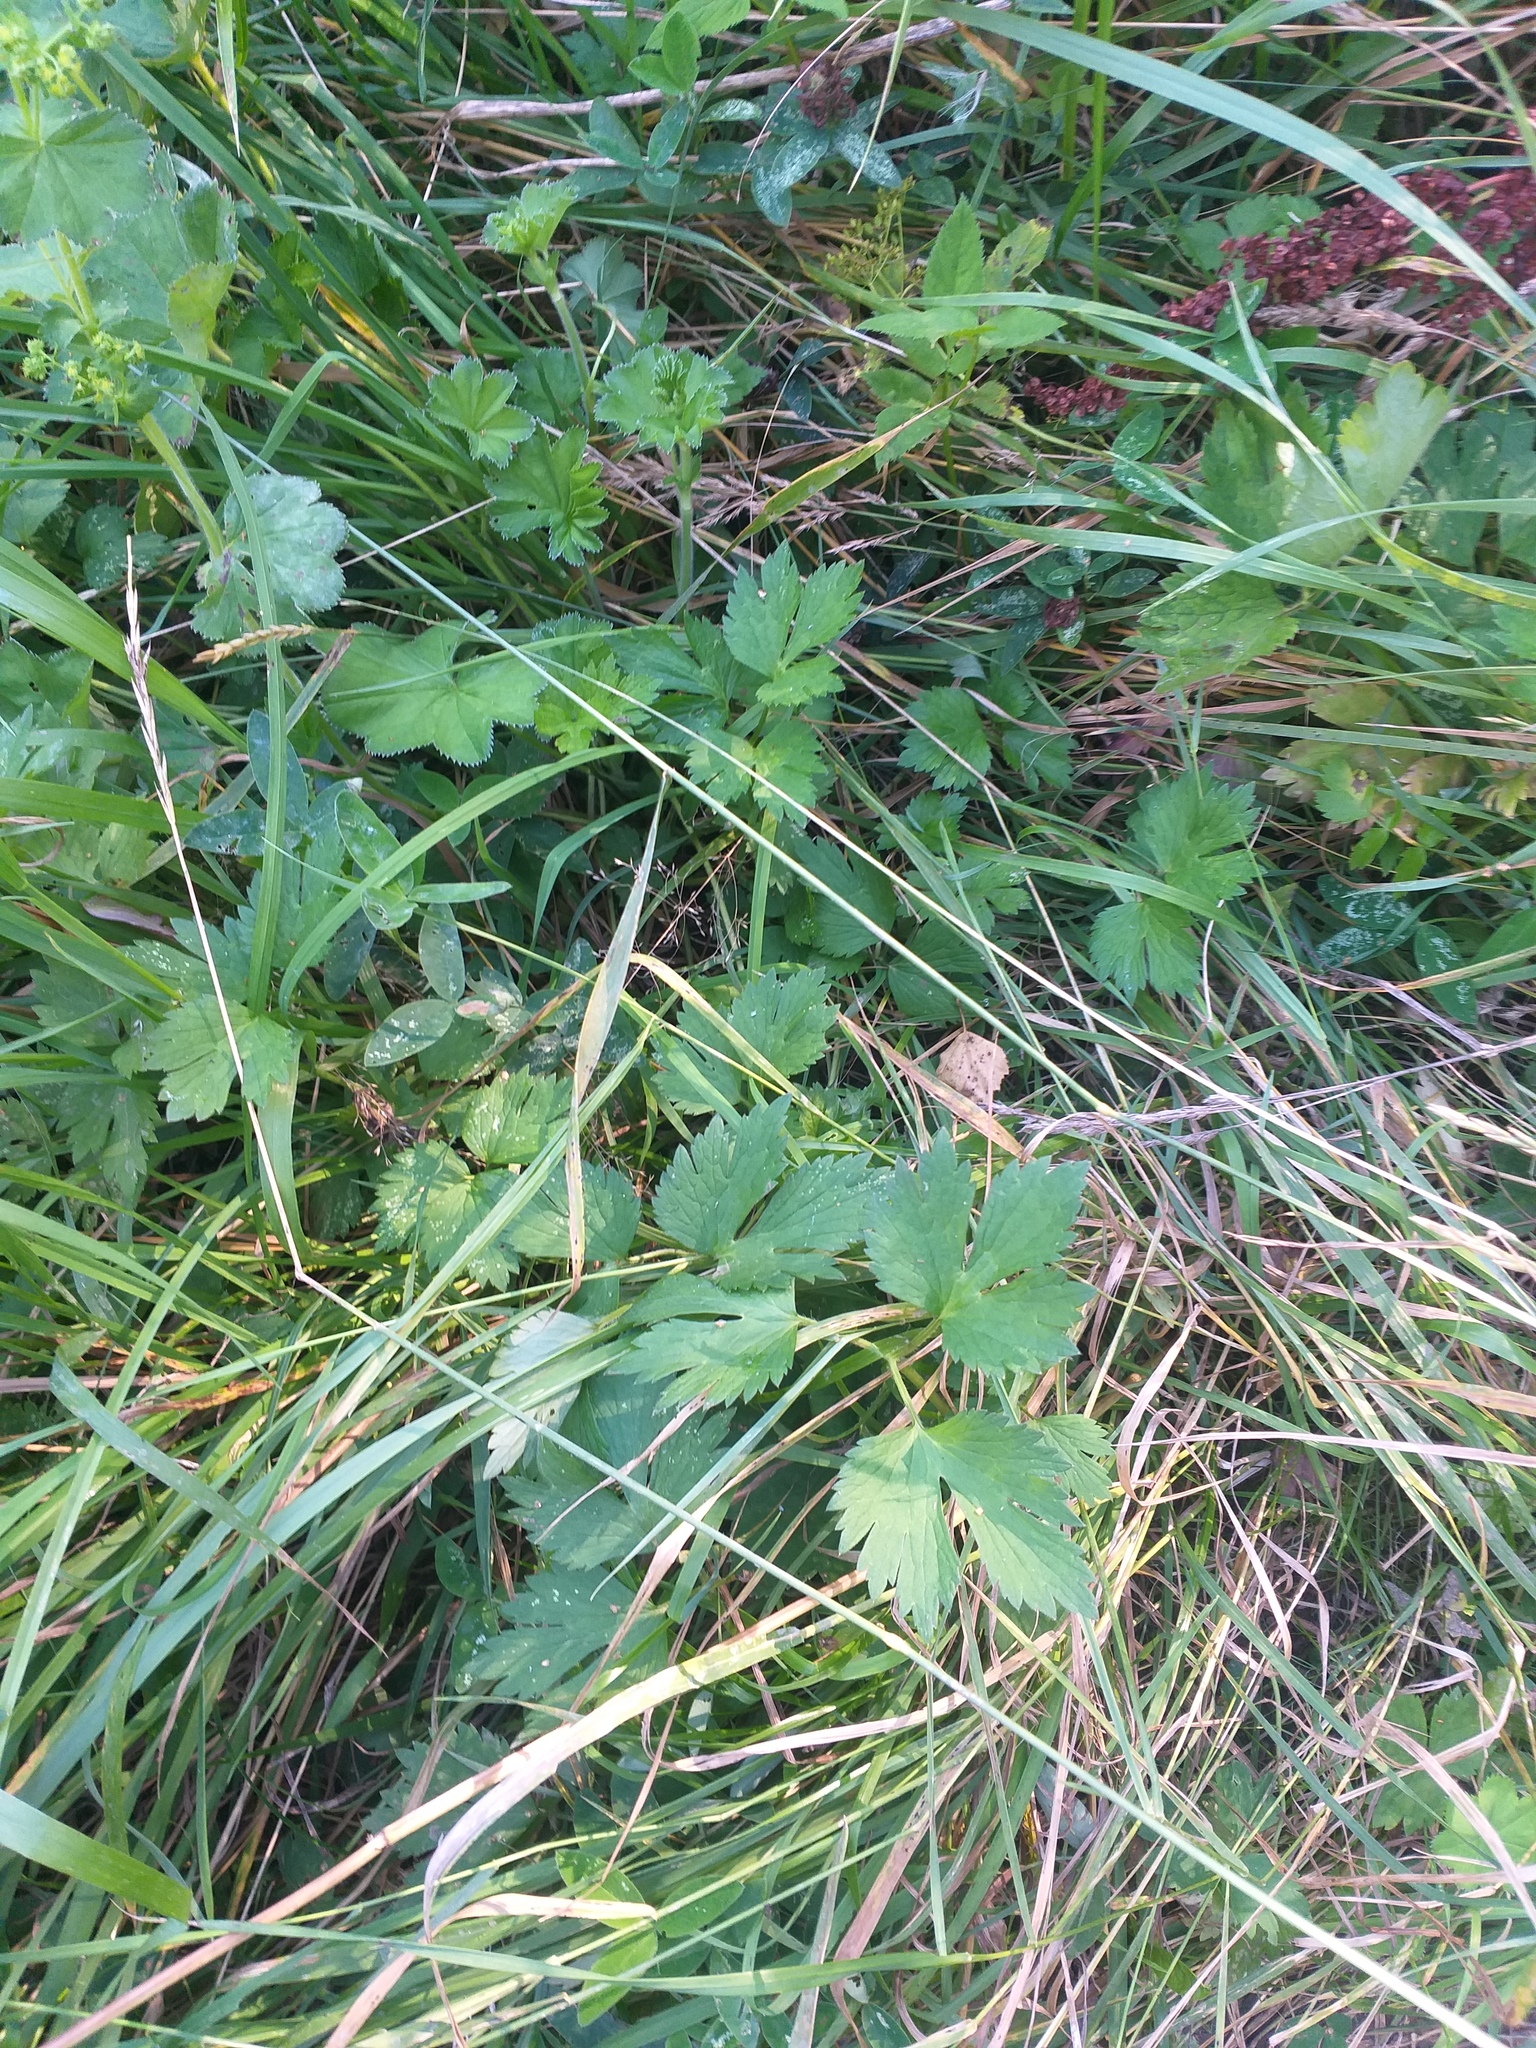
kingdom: Plantae
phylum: Tracheophyta
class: Magnoliopsida
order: Ranunculales
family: Ranunculaceae
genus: Ranunculus
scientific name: Ranunculus repens
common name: Creeping buttercup
